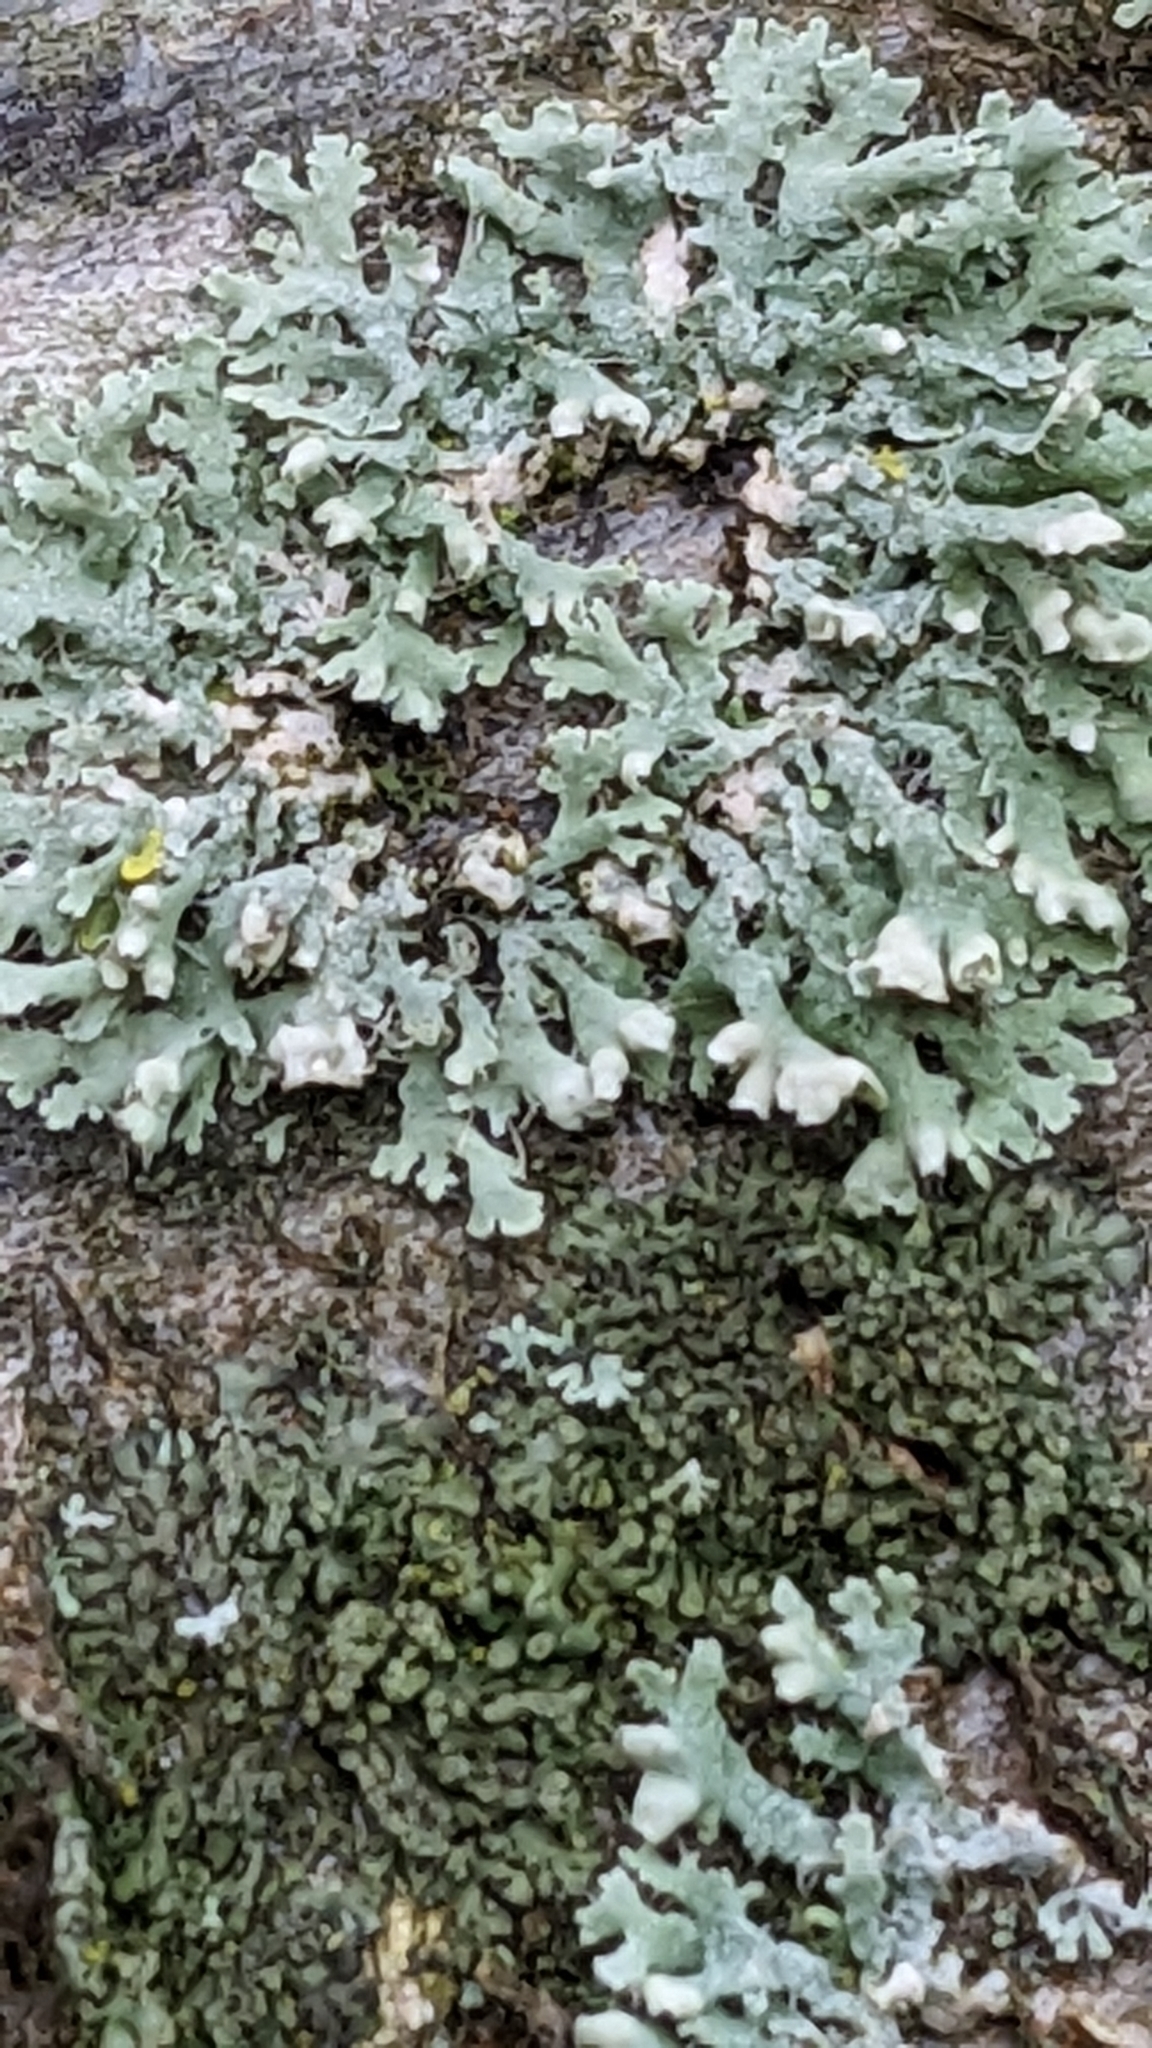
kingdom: Fungi
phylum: Ascomycota
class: Lecanoromycetes
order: Caliciales
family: Physciaceae
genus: Physcia
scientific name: Physcia adscendens
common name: Hooded rosette lichen
